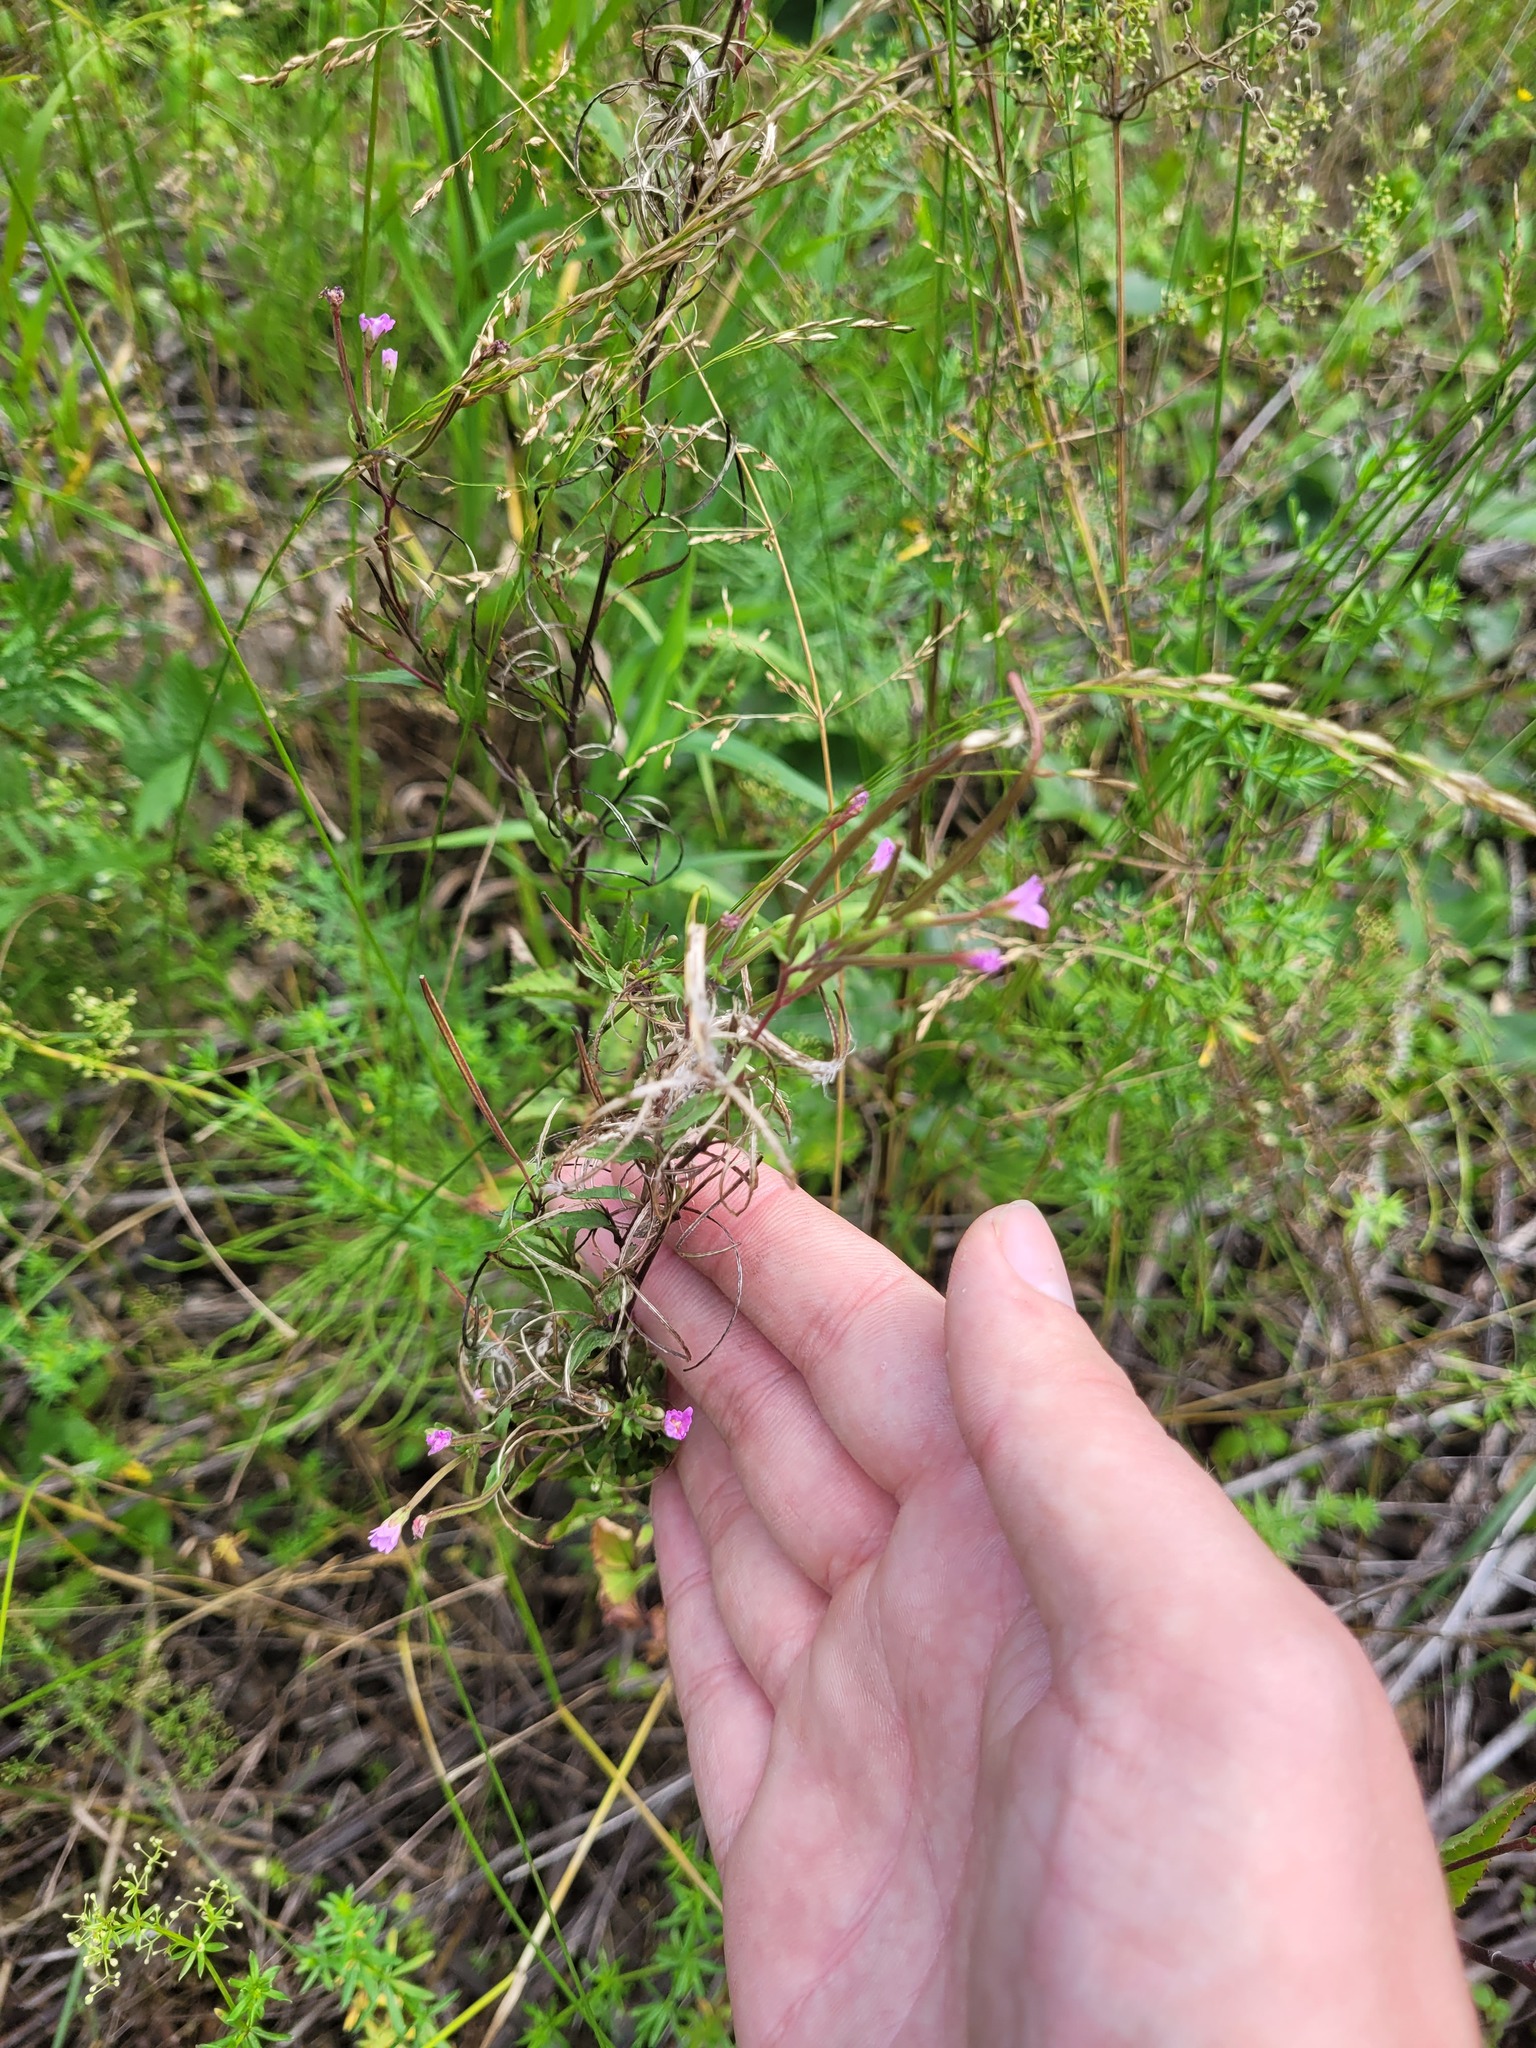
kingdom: Plantae
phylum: Tracheophyta
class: Magnoliopsida
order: Myrtales
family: Onagraceae
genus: Epilobium
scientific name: Epilobium montanum
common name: Broad-leaved willowherb
